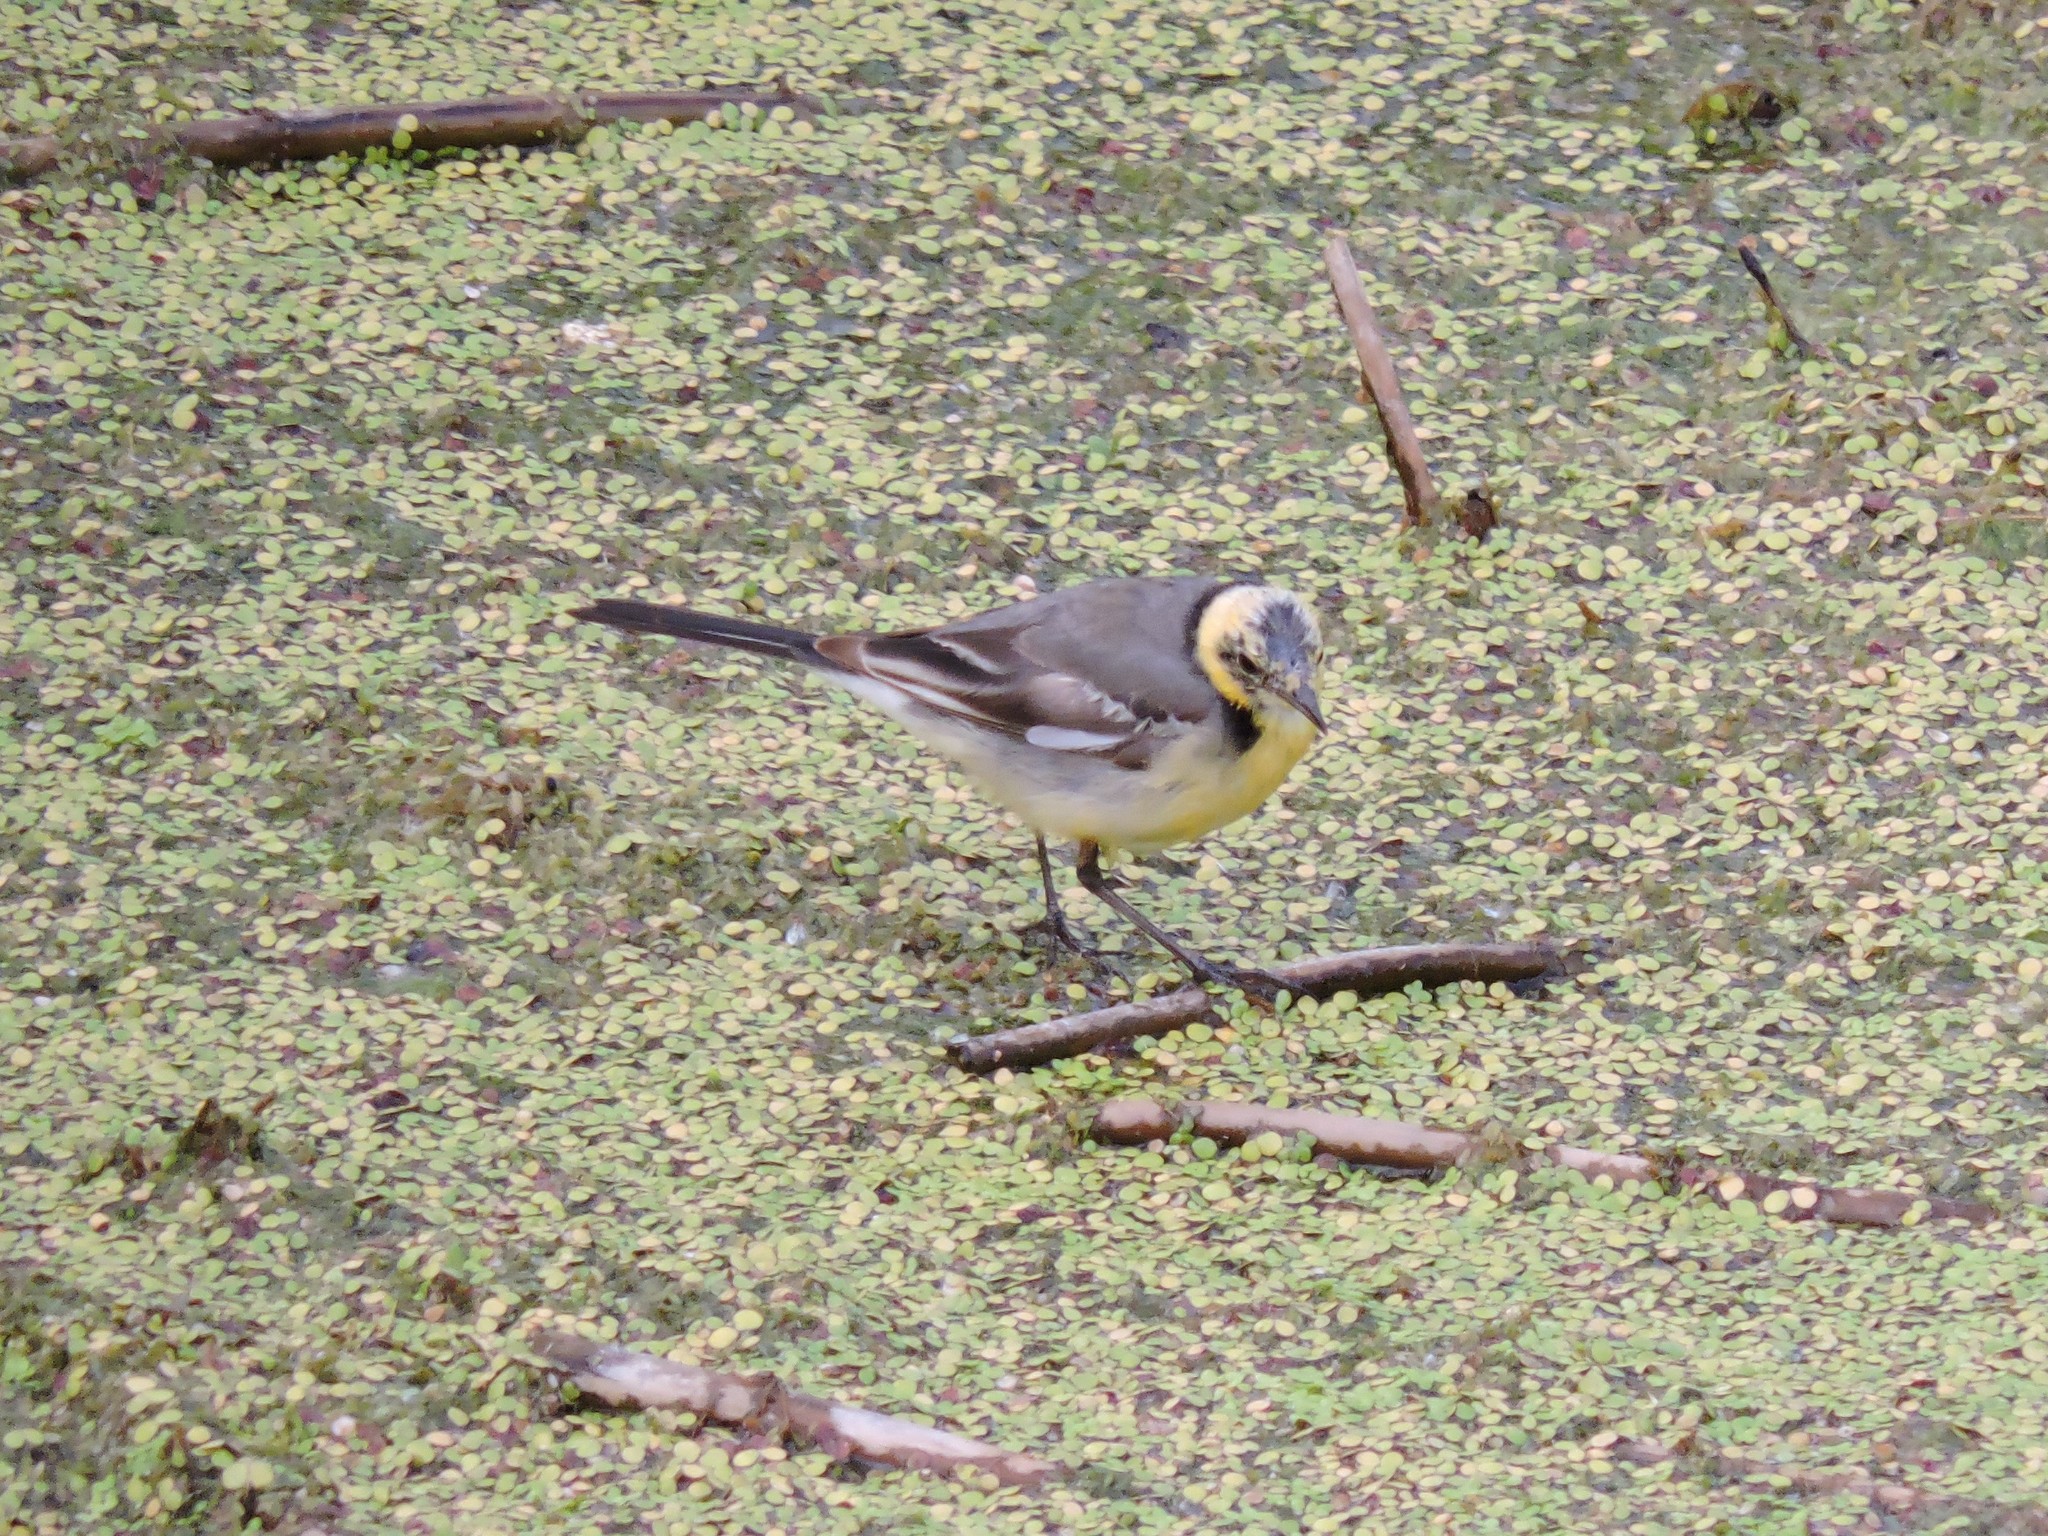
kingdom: Animalia
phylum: Chordata
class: Aves
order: Passeriformes
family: Motacillidae
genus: Motacilla
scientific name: Motacilla citreola
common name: Citrine wagtail
